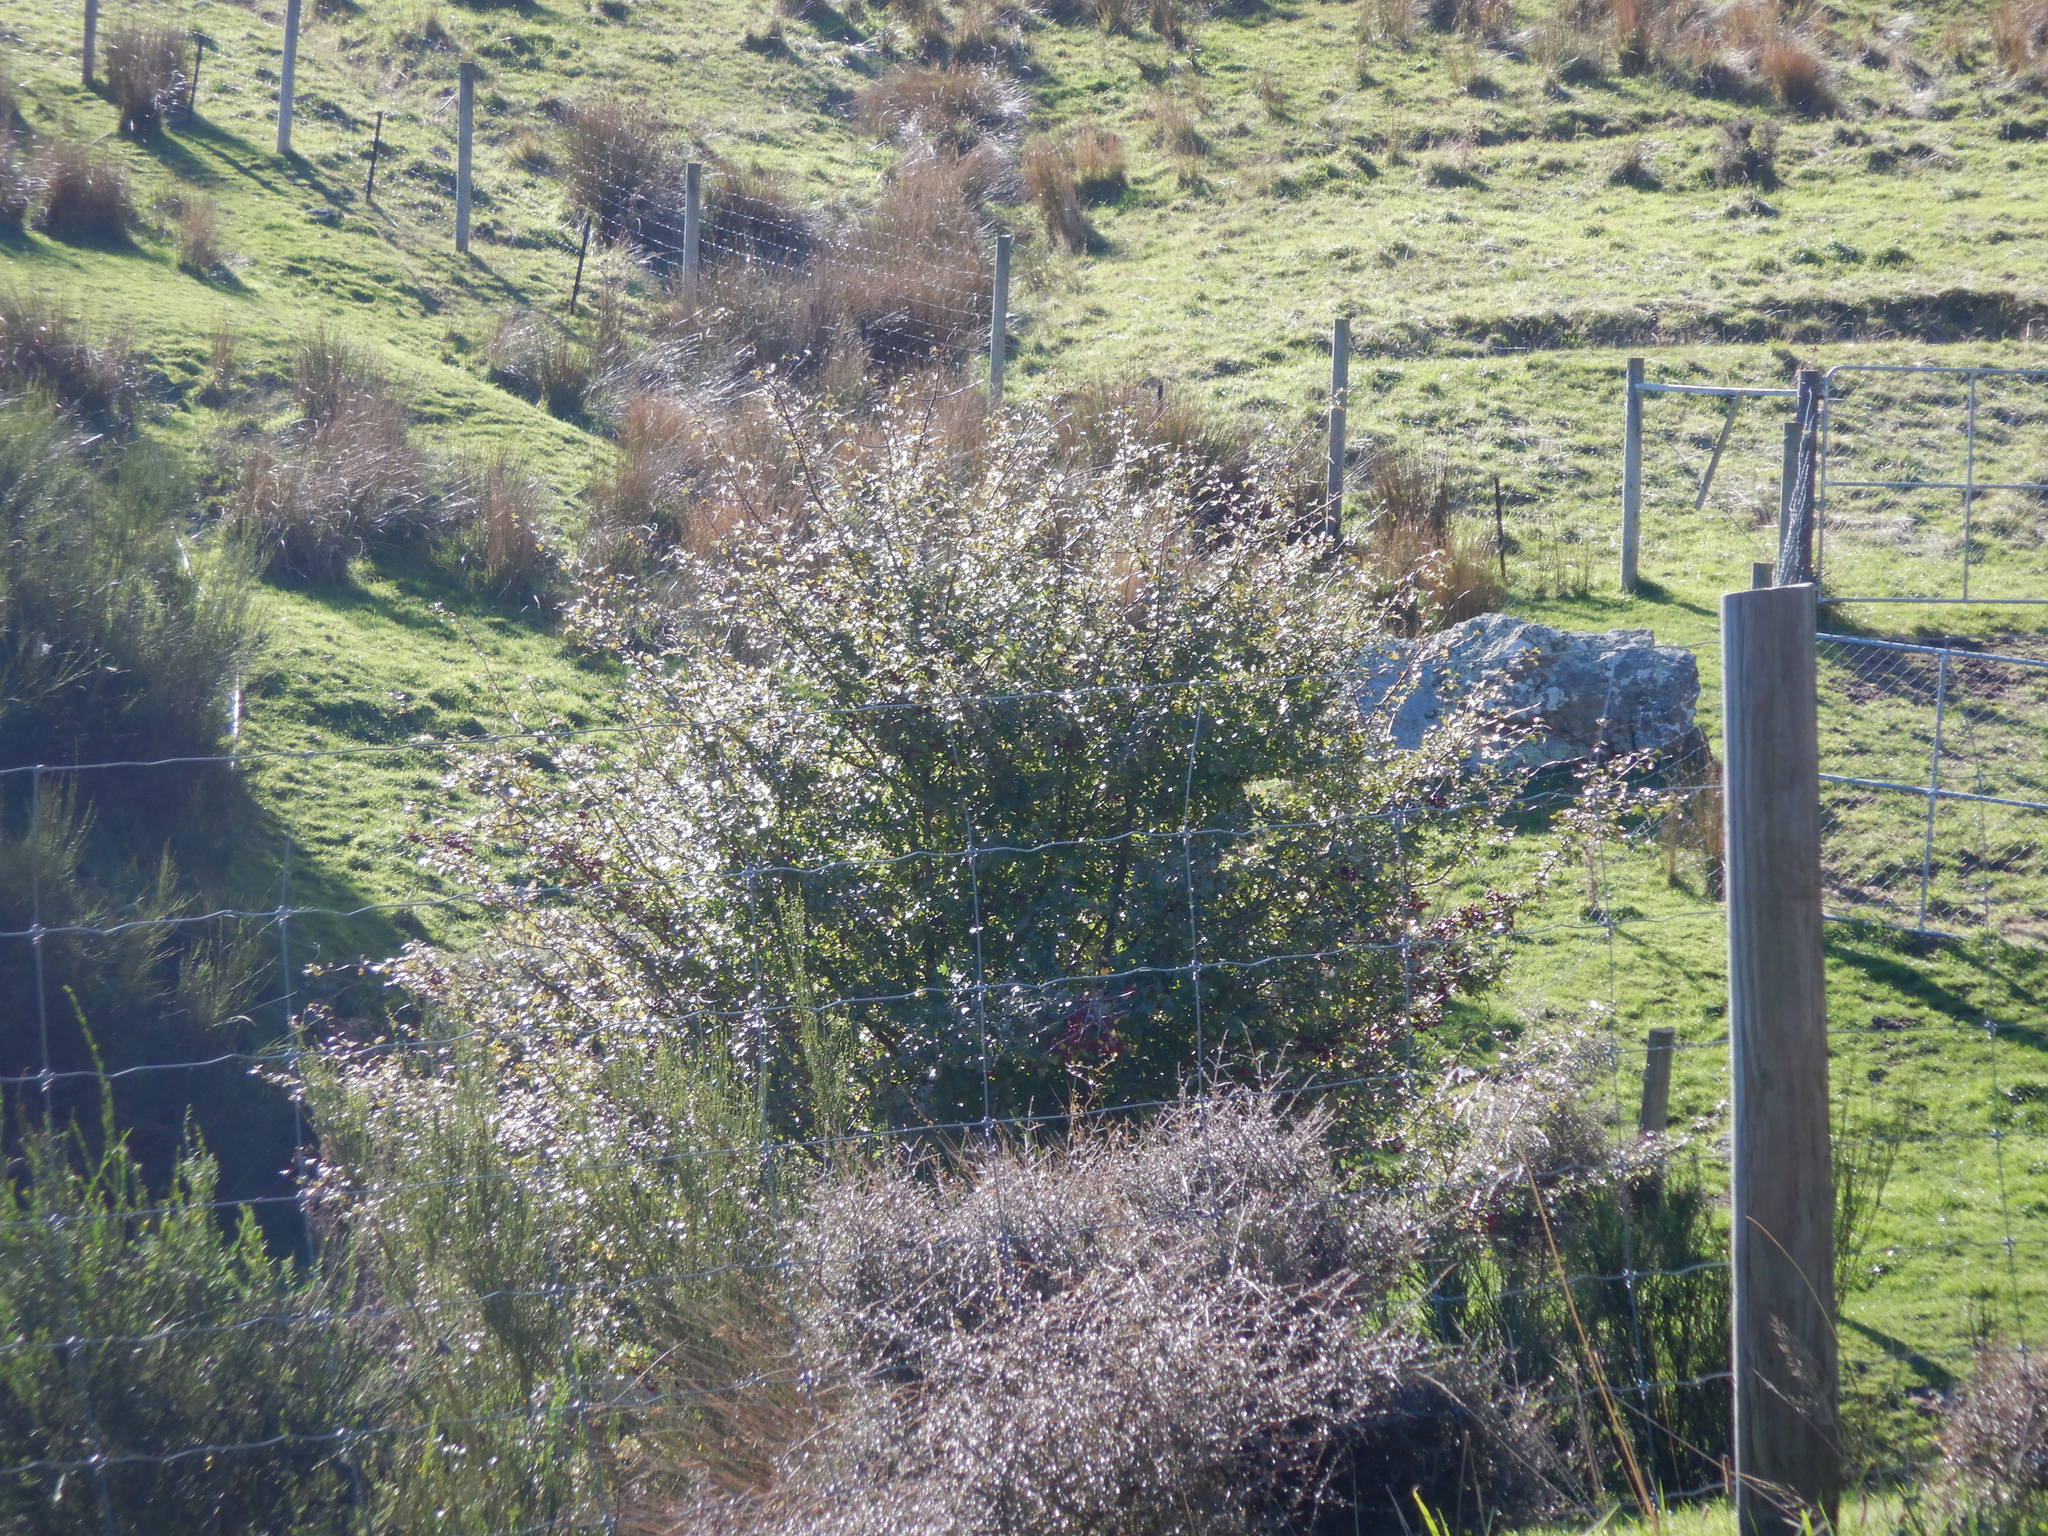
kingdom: Plantae
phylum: Tracheophyta
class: Magnoliopsida
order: Rosales
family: Rosaceae
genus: Crataegus
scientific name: Crataegus monogyna
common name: Hawthorn
